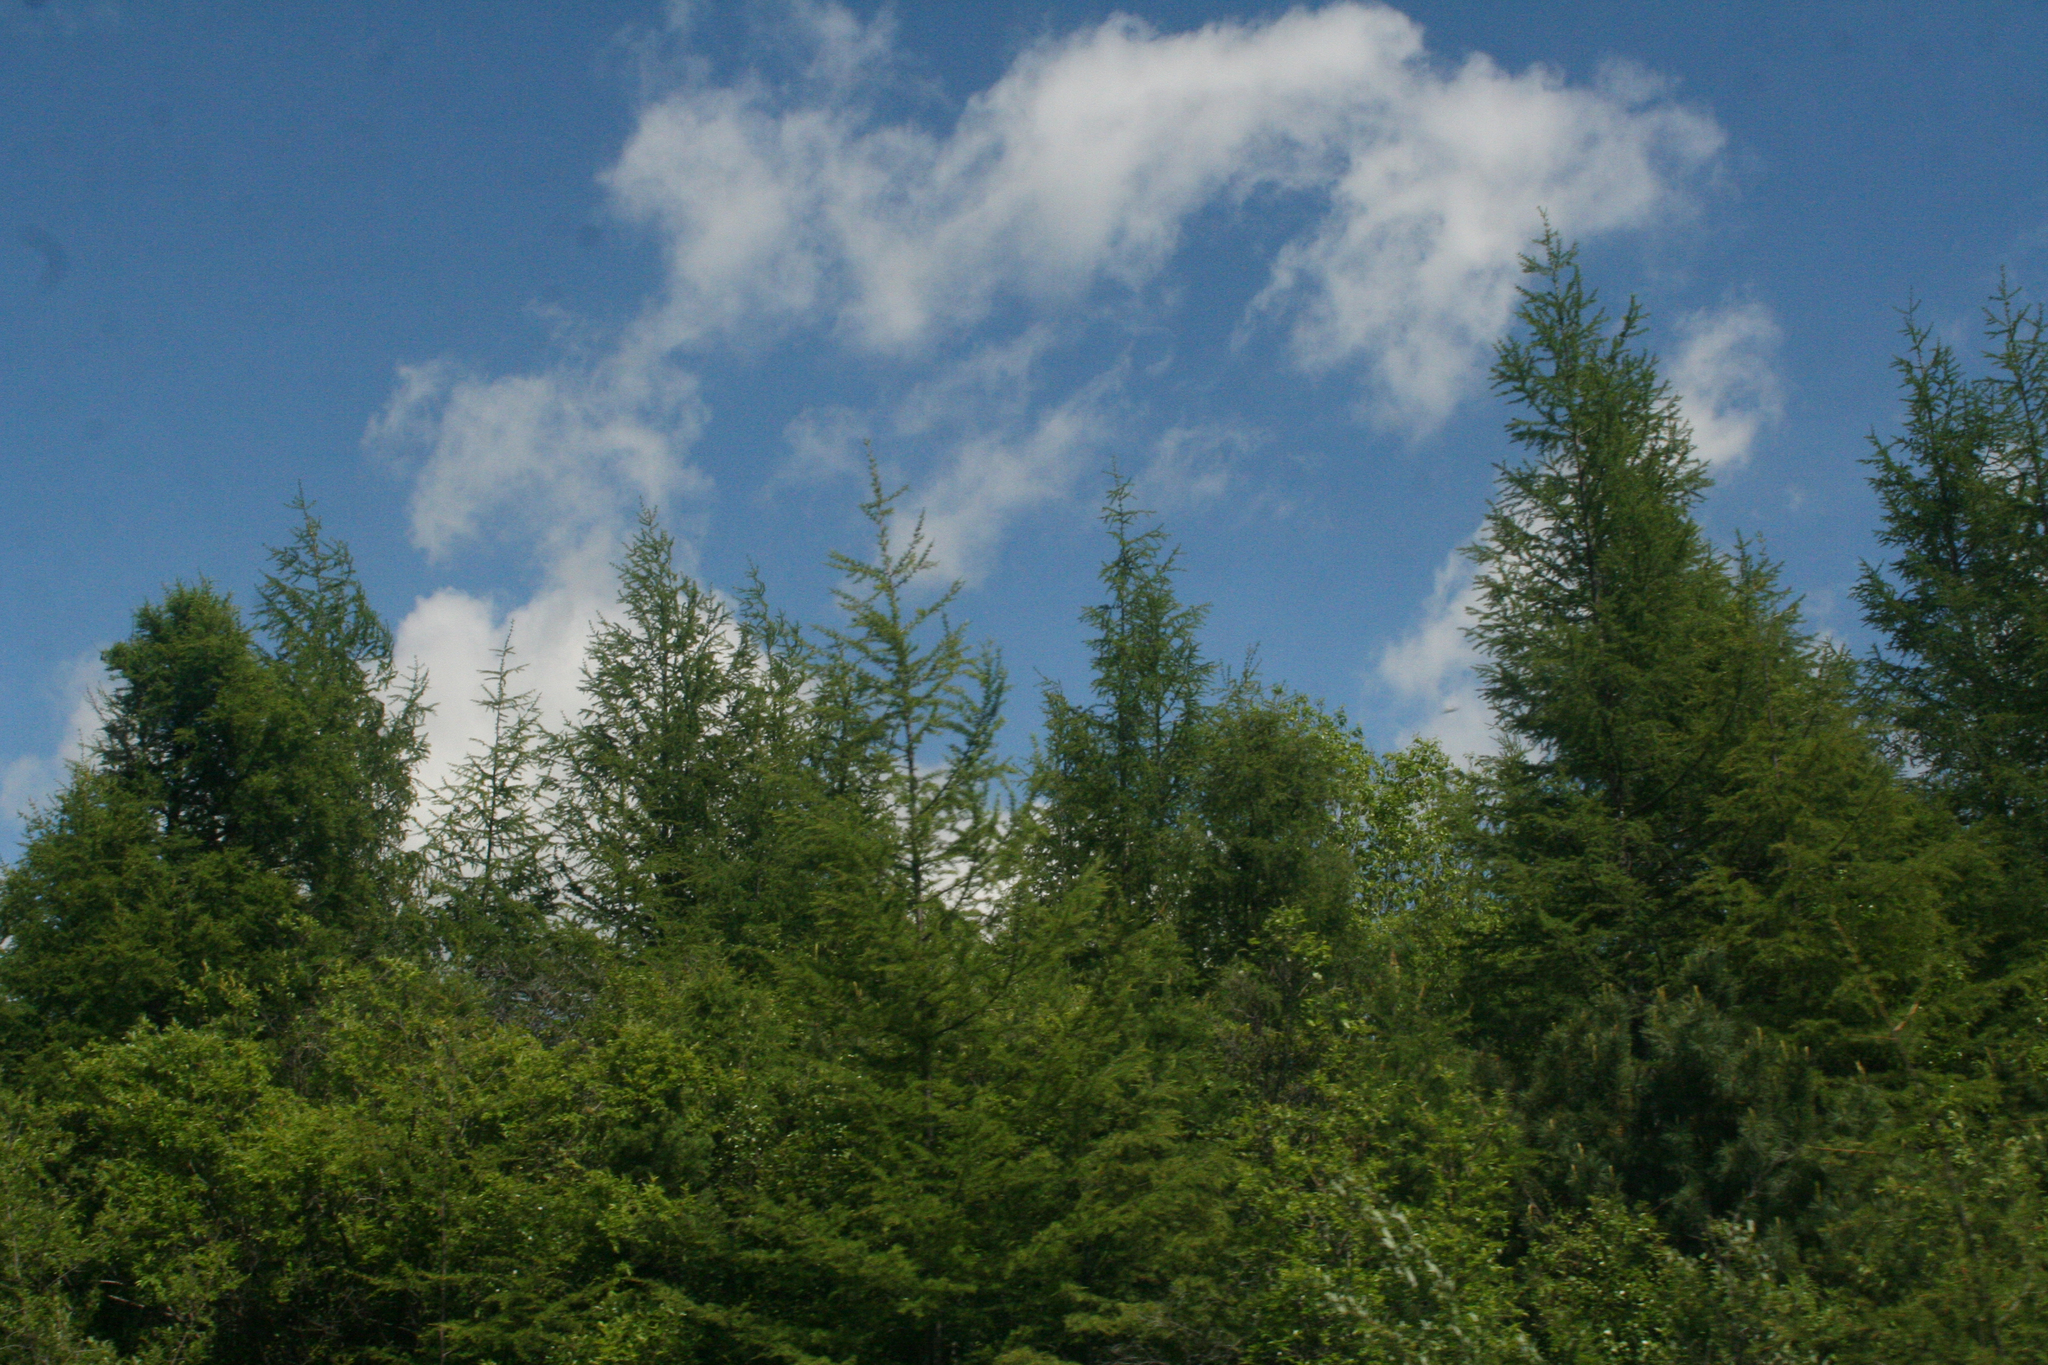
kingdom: Plantae
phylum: Tracheophyta
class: Pinopsida
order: Pinales
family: Pinaceae
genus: Larix
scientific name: Larix gmelinii
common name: Dahurian larch
